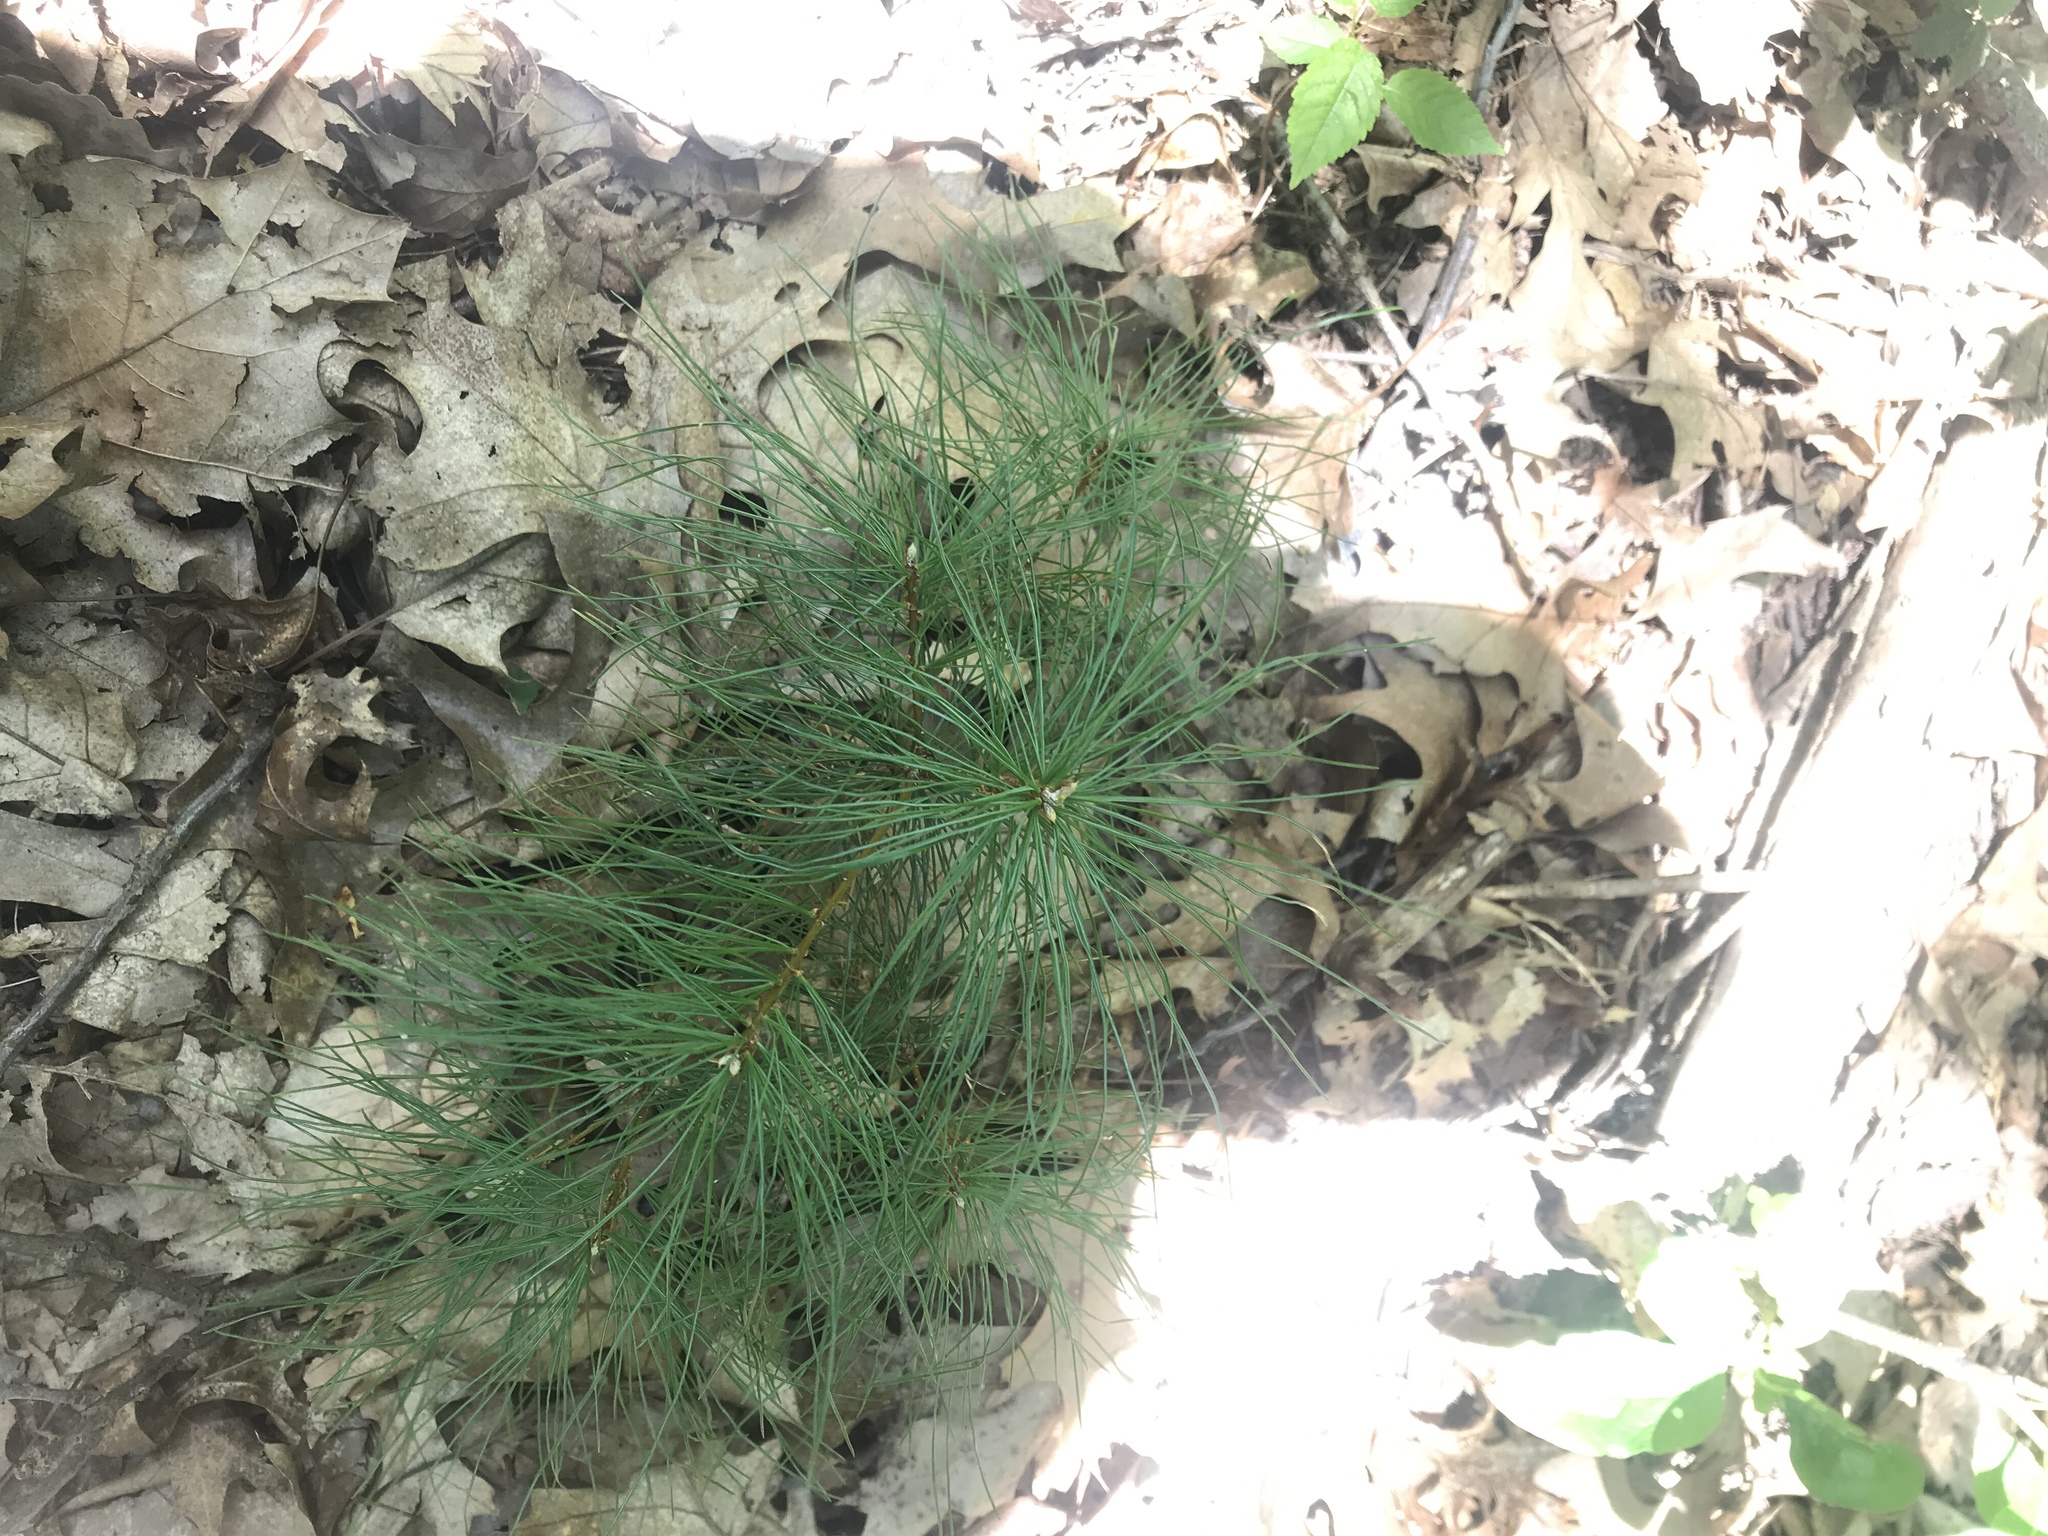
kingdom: Plantae
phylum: Tracheophyta
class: Pinopsida
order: Pinales
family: Pinaceae
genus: Pinus
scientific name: Pinus strobus
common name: Weymouth pine
